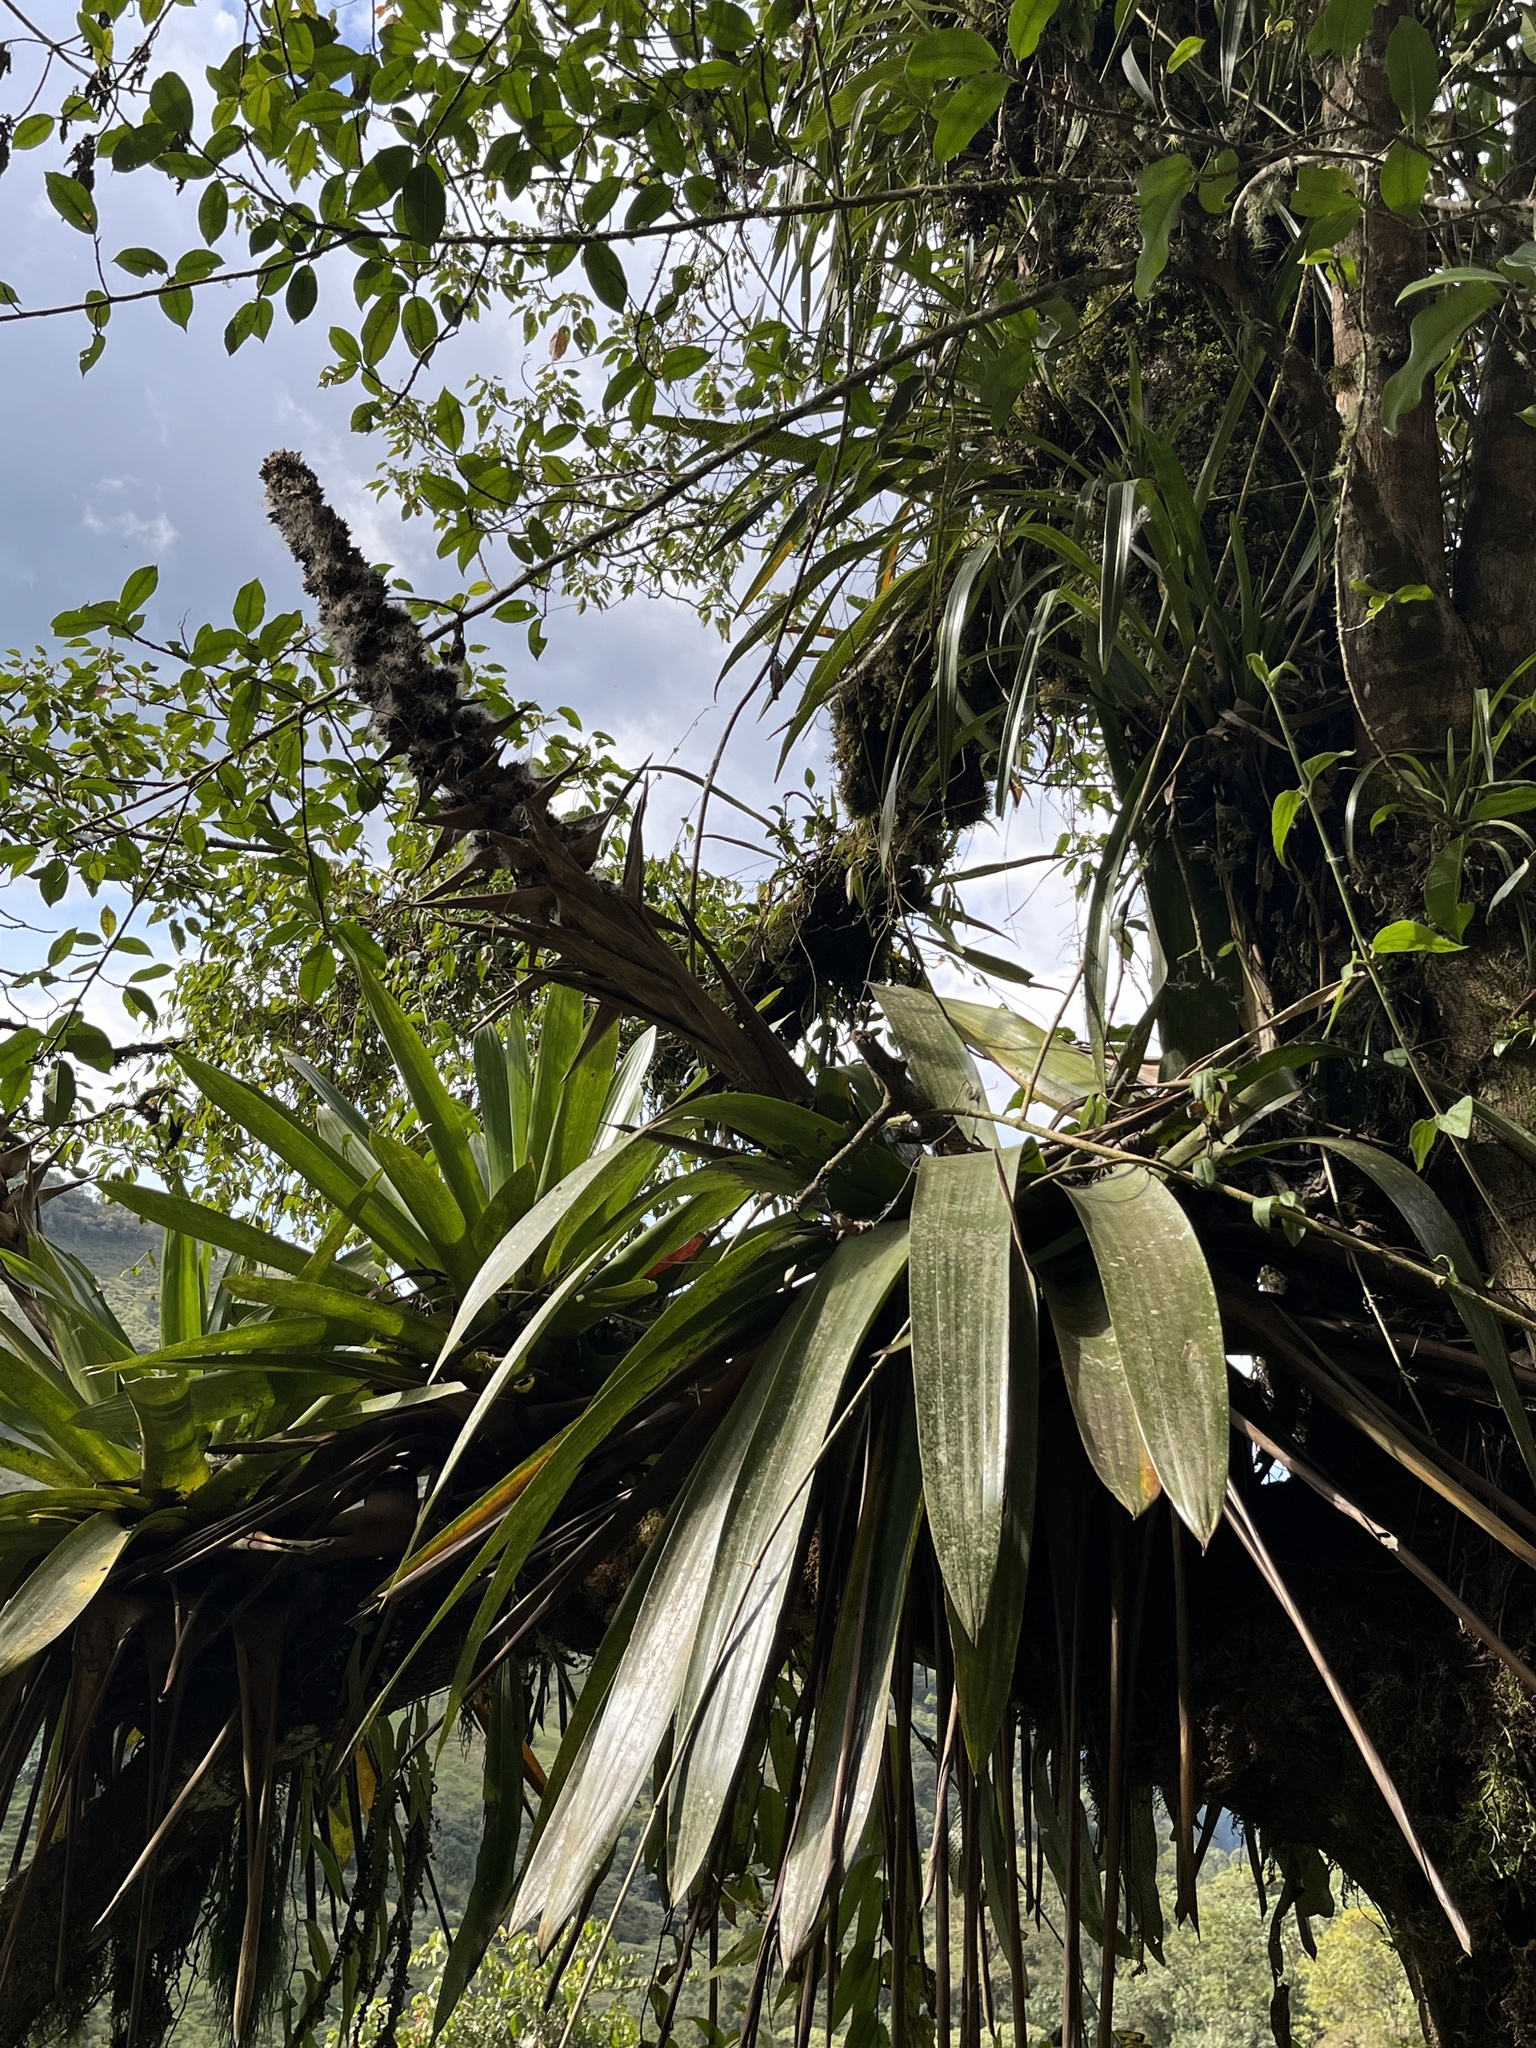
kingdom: Plantae
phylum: Tracheophyta
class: Liliopsida
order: Poales
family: Bromeliaceae
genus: Cipuropsis
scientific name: Cipuropsis capituligera
